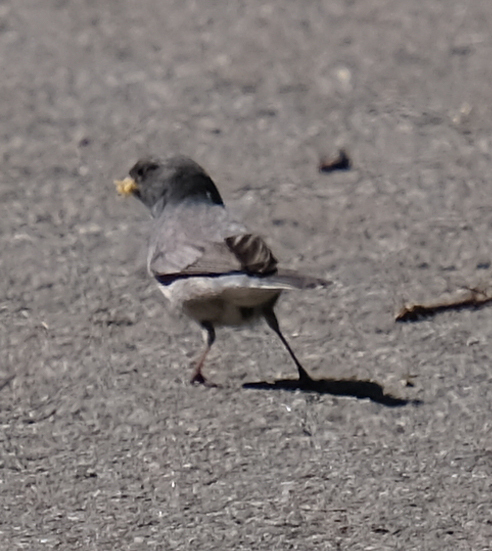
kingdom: Animalia
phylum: Chordata
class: Aves
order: Passeriformes
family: Passerellidae
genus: Junco
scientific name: Junco hyemalis
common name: Dark-eyed junco
